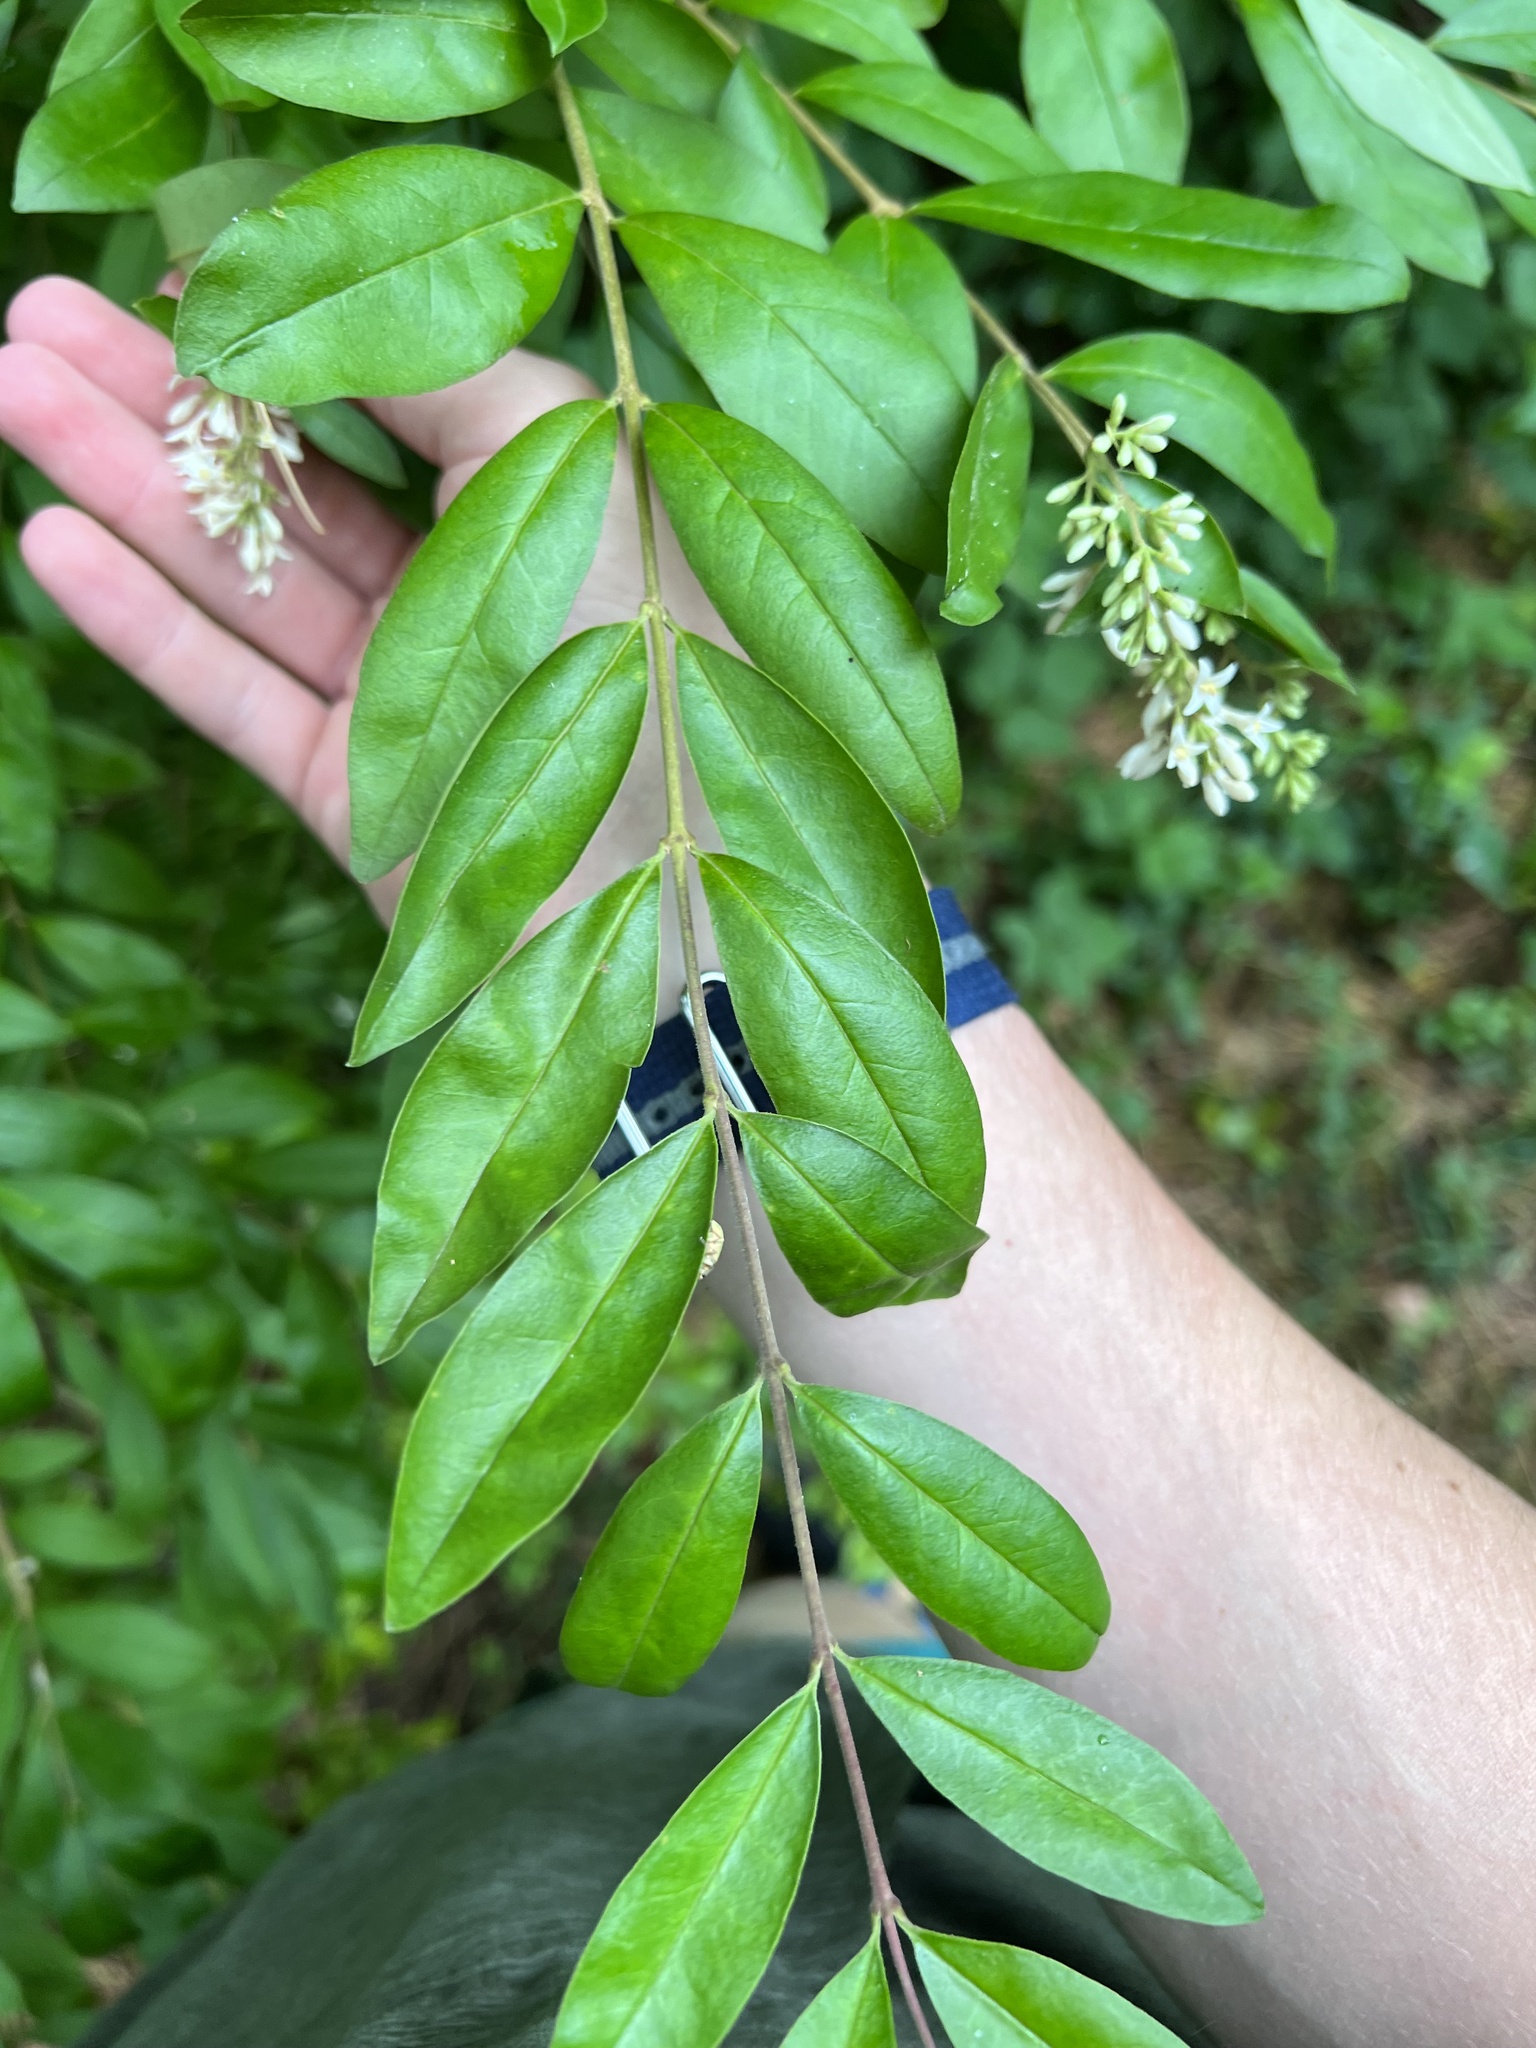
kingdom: Plantae
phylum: Tracheophyta
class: Magnoliopsida
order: Lamiales
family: Oleaceae
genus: Ligustrum
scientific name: Ligustrum obtusifolium
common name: Border privet
